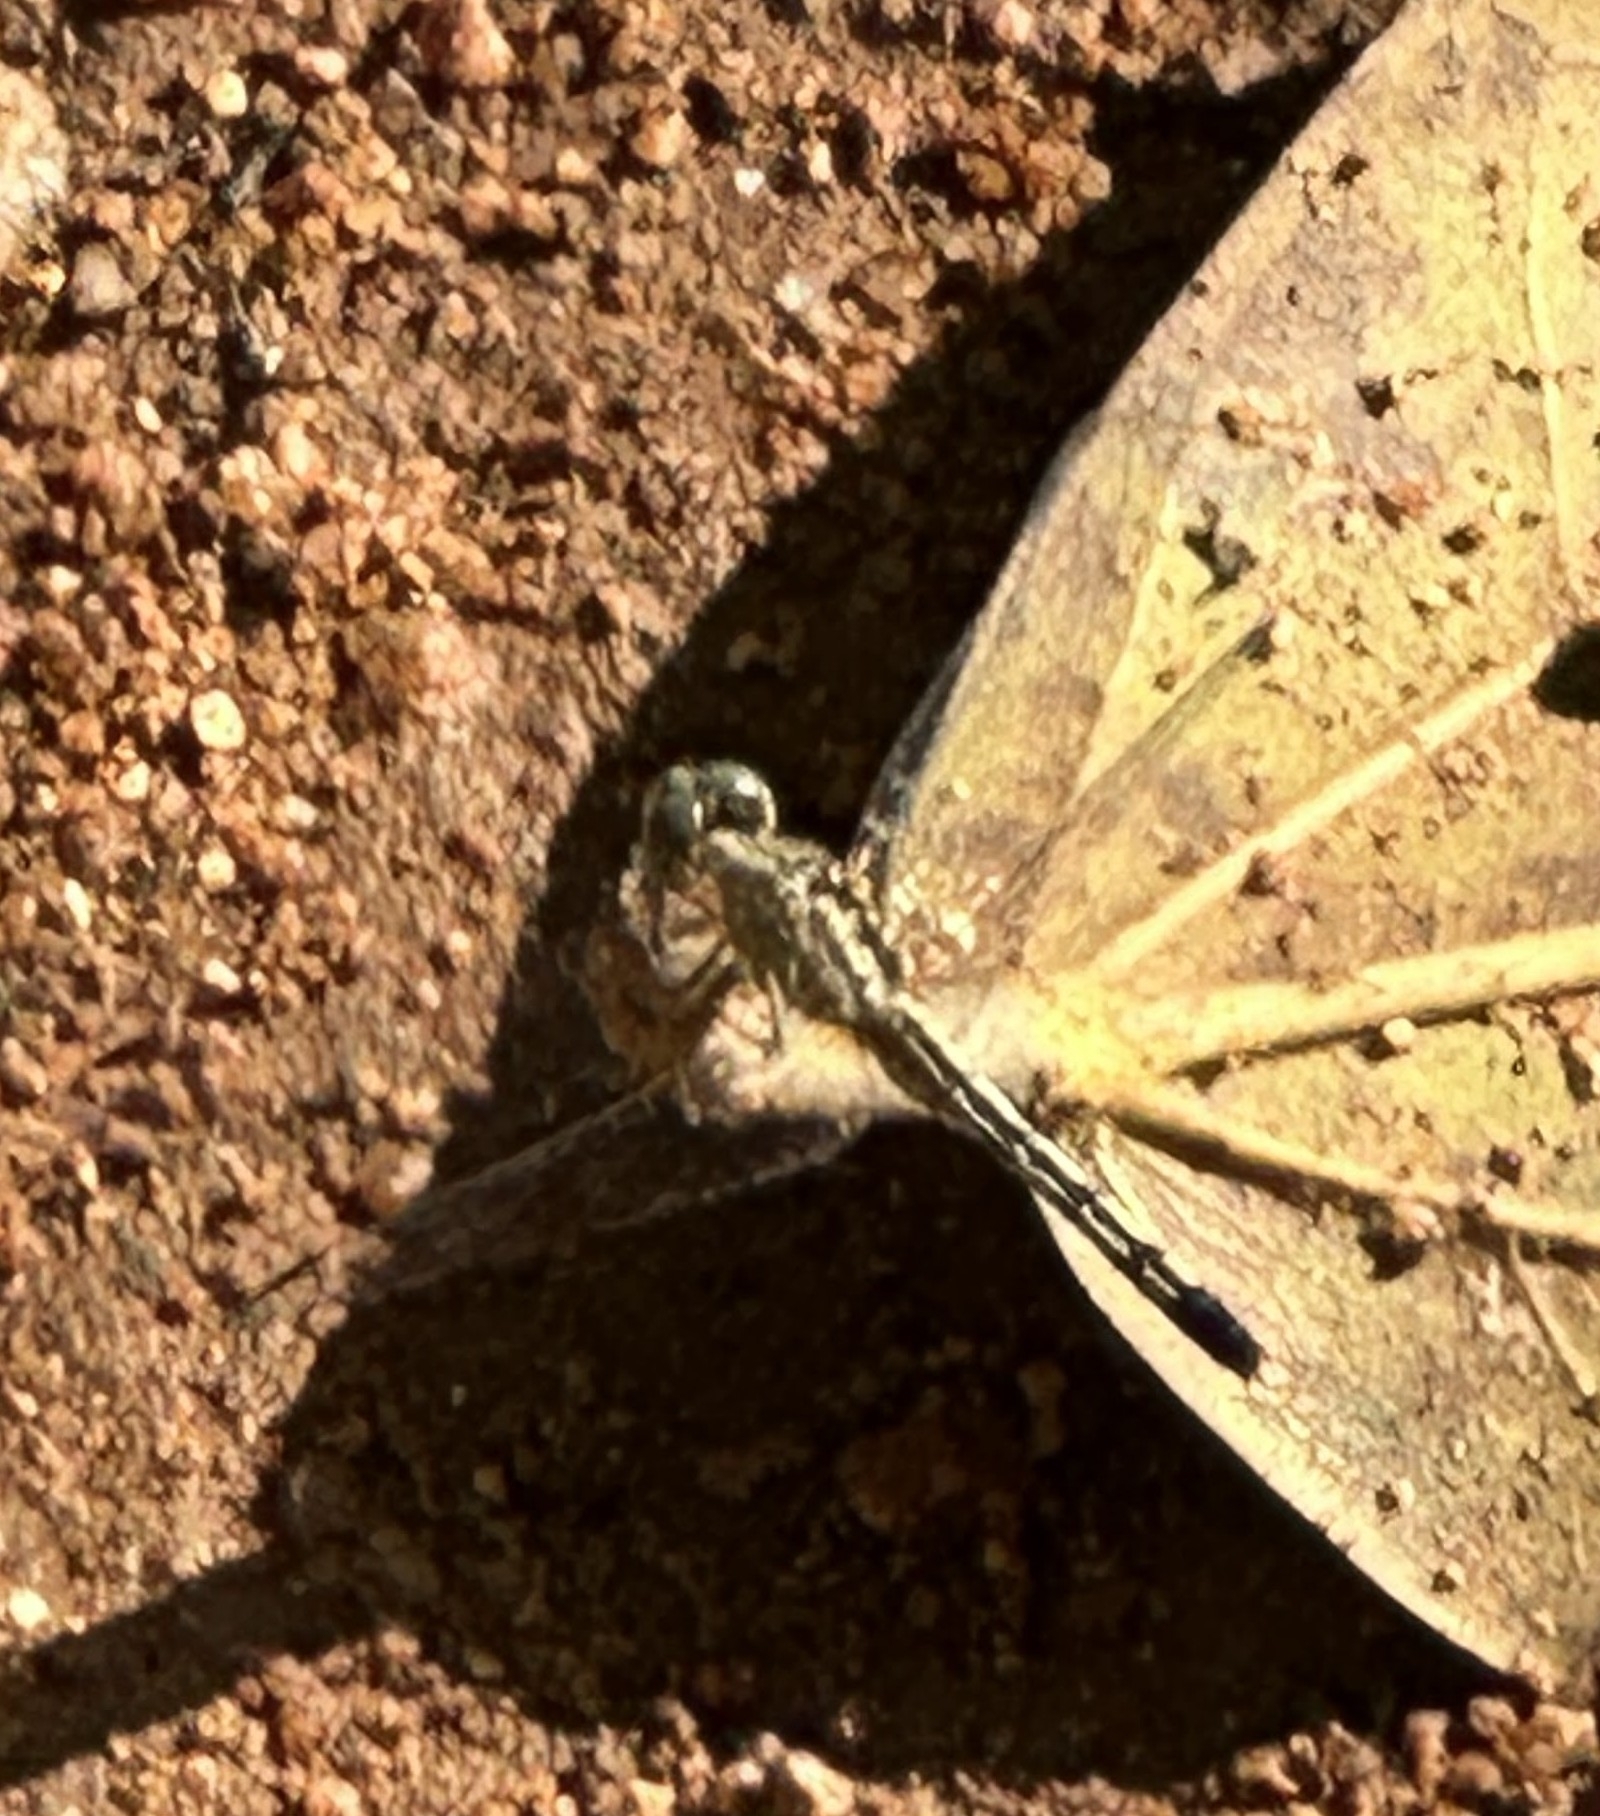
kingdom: Animalia
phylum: Arthropoda
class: Insecta
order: Odonata
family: Libellulidae
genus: Diplacodes
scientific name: Diplacodes trivialis
